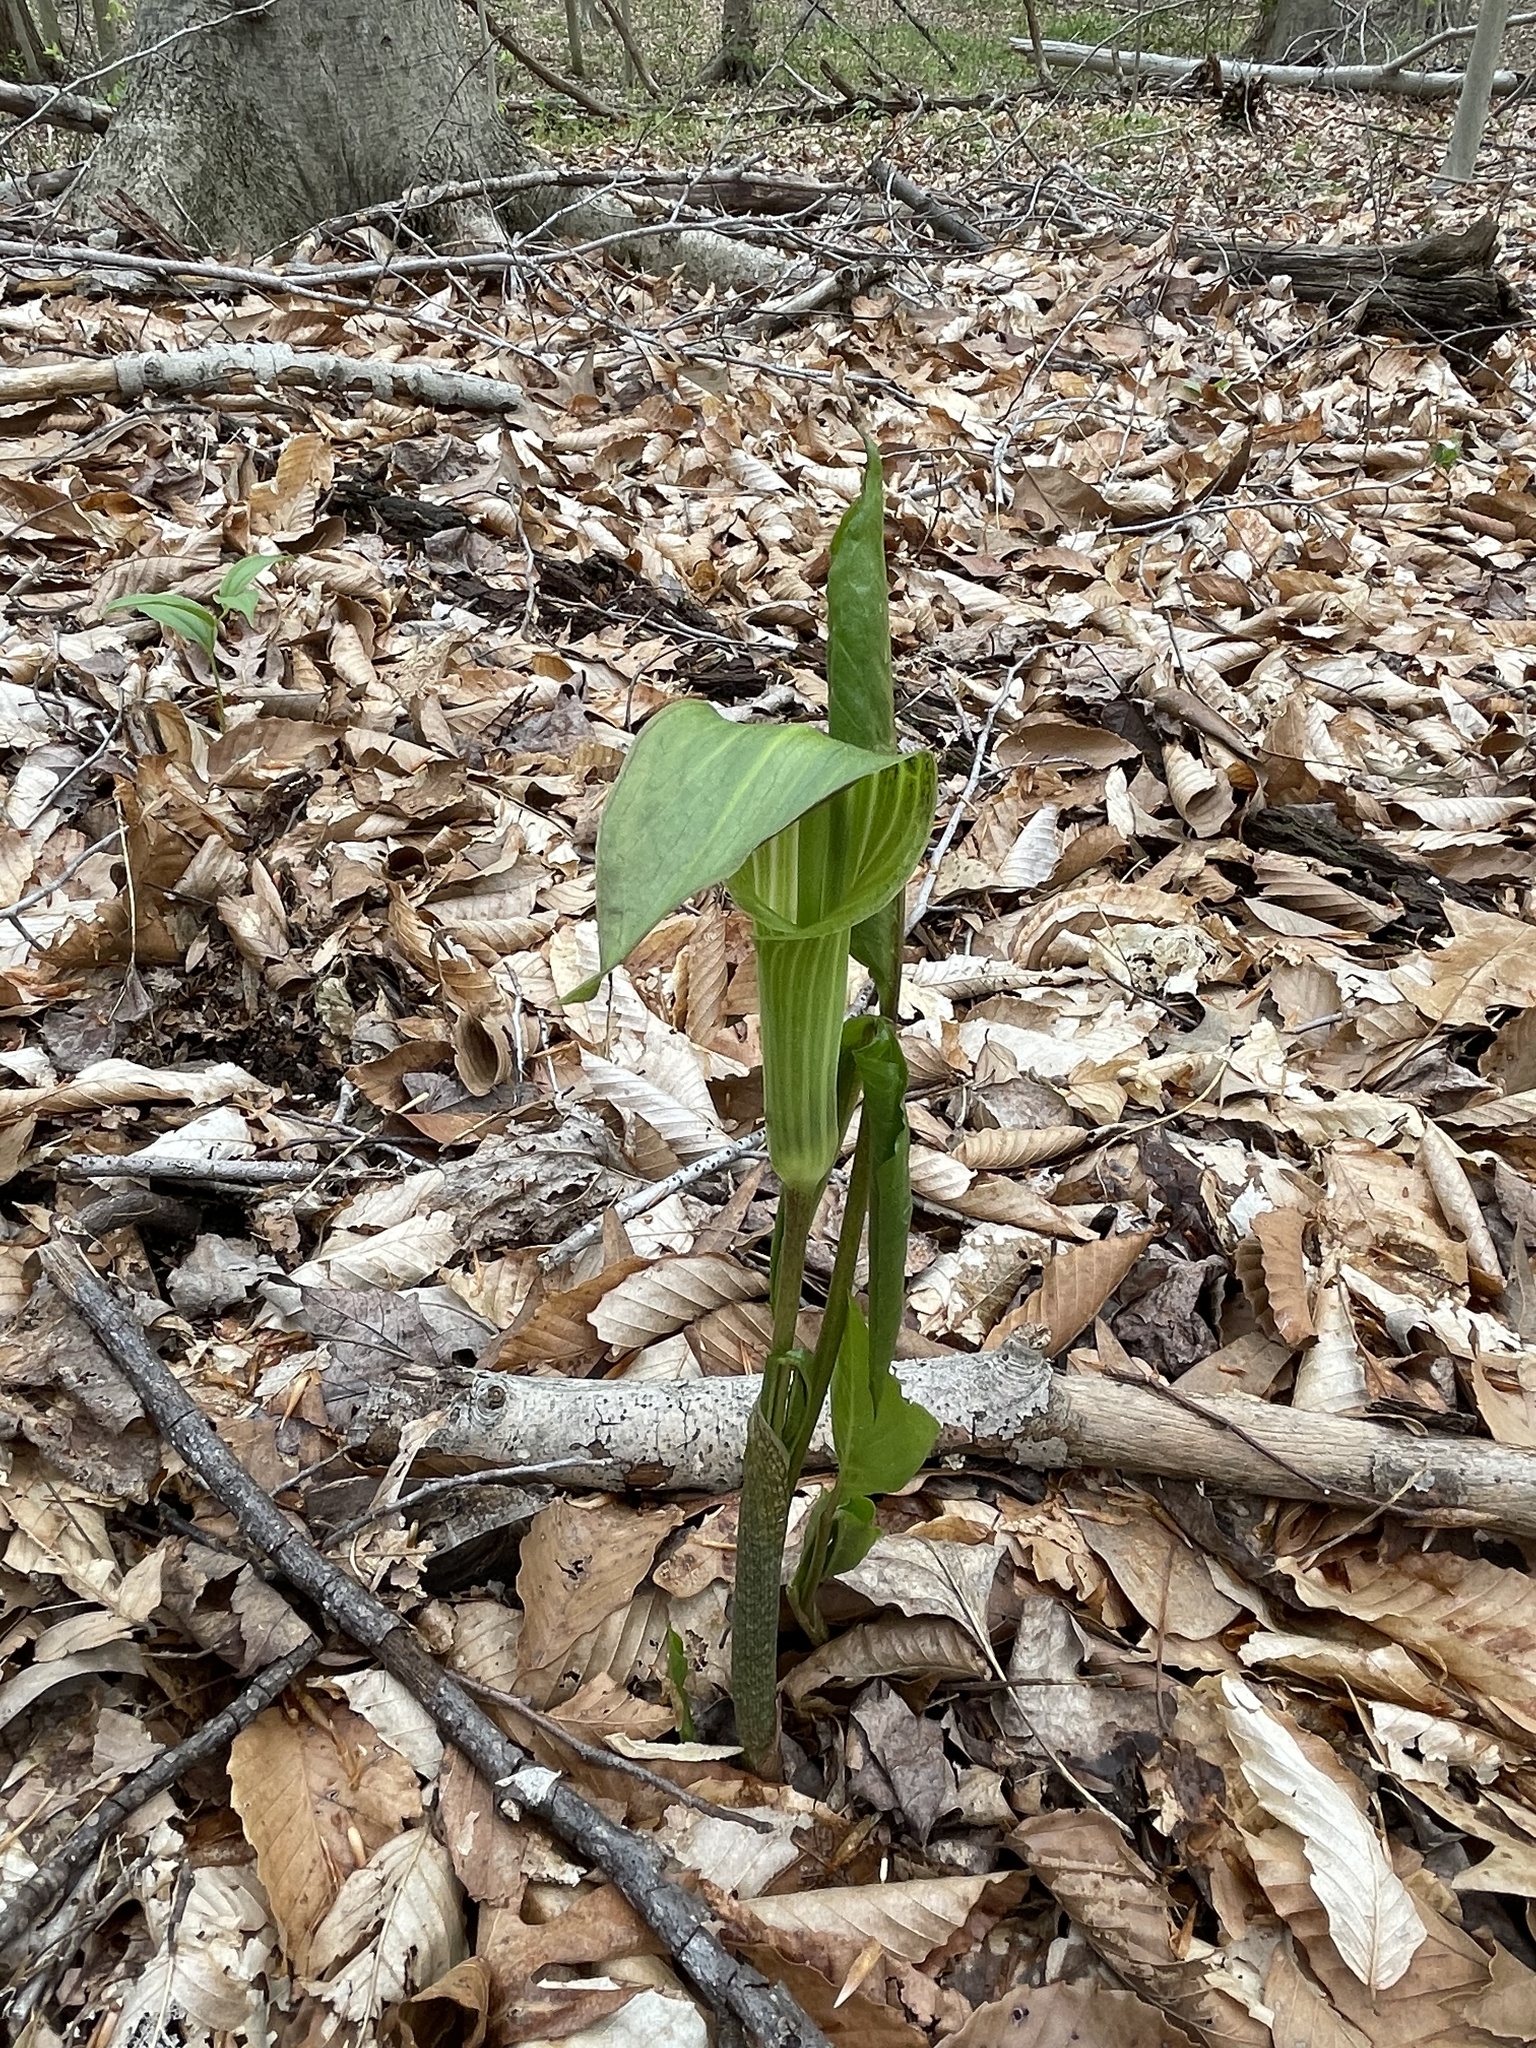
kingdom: Plantae
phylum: Tracheophyta
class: Liliopsida
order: Alismatales
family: Araceae
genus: Arisaema
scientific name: Arisaema triphyllum
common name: Jack-in-the-pulpit
